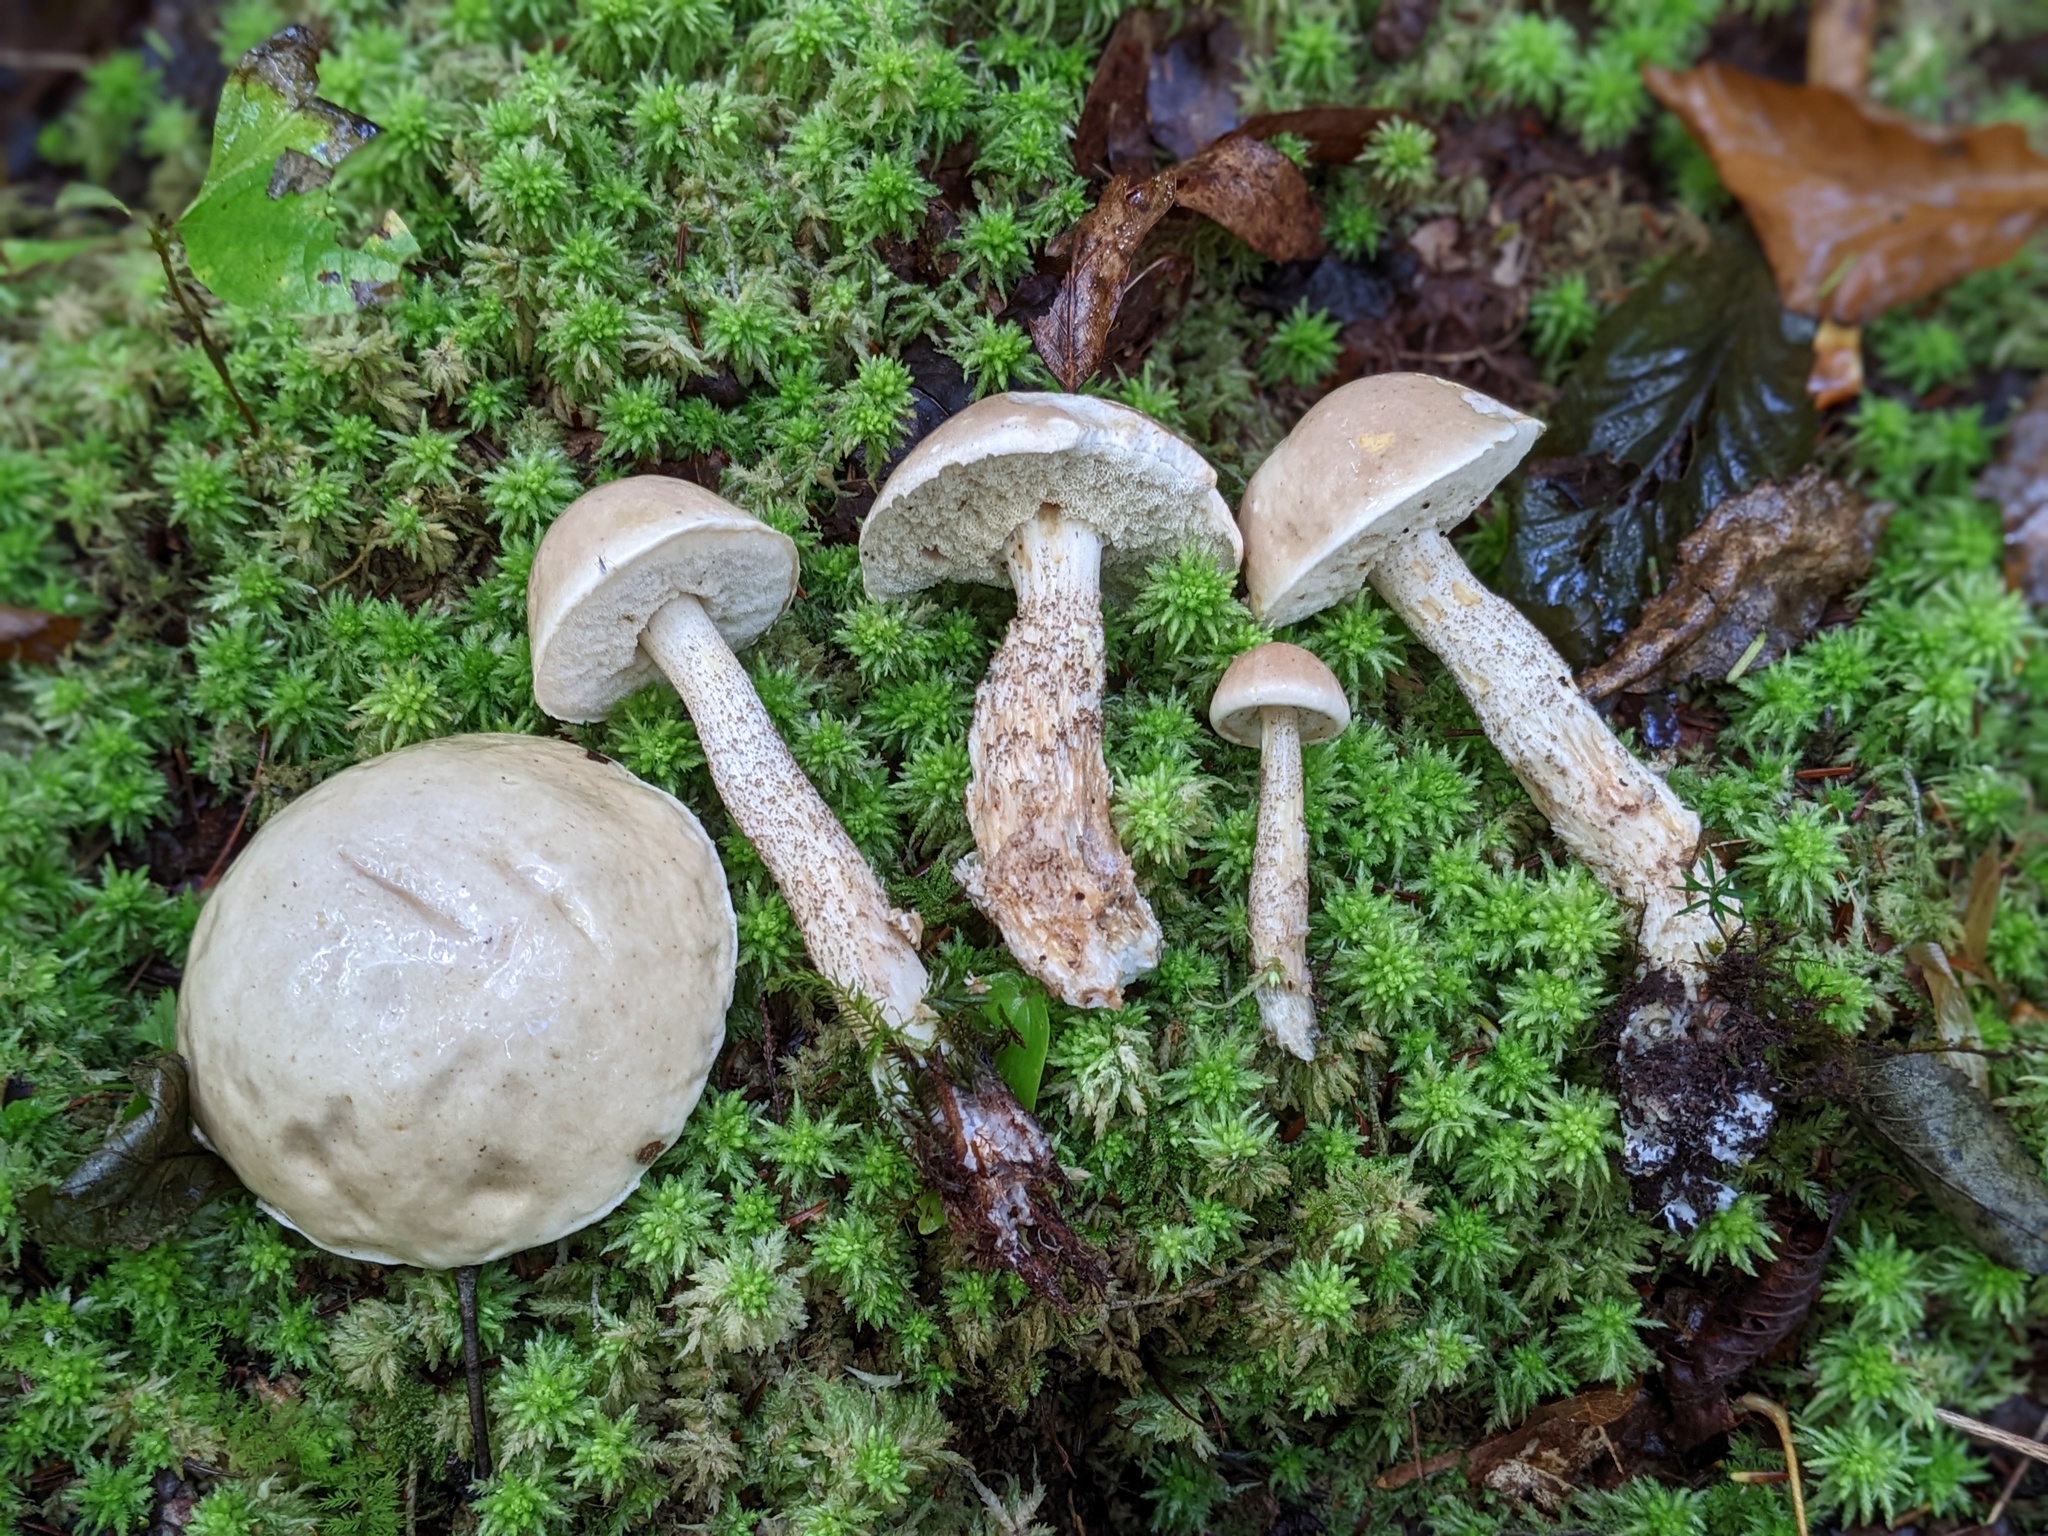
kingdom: Fungi
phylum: Basidiomycota
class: Agaricomycetes
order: Boletales
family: Boletaceae
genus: Leccinum
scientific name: Leccinum holopus
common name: Ghost bolete
